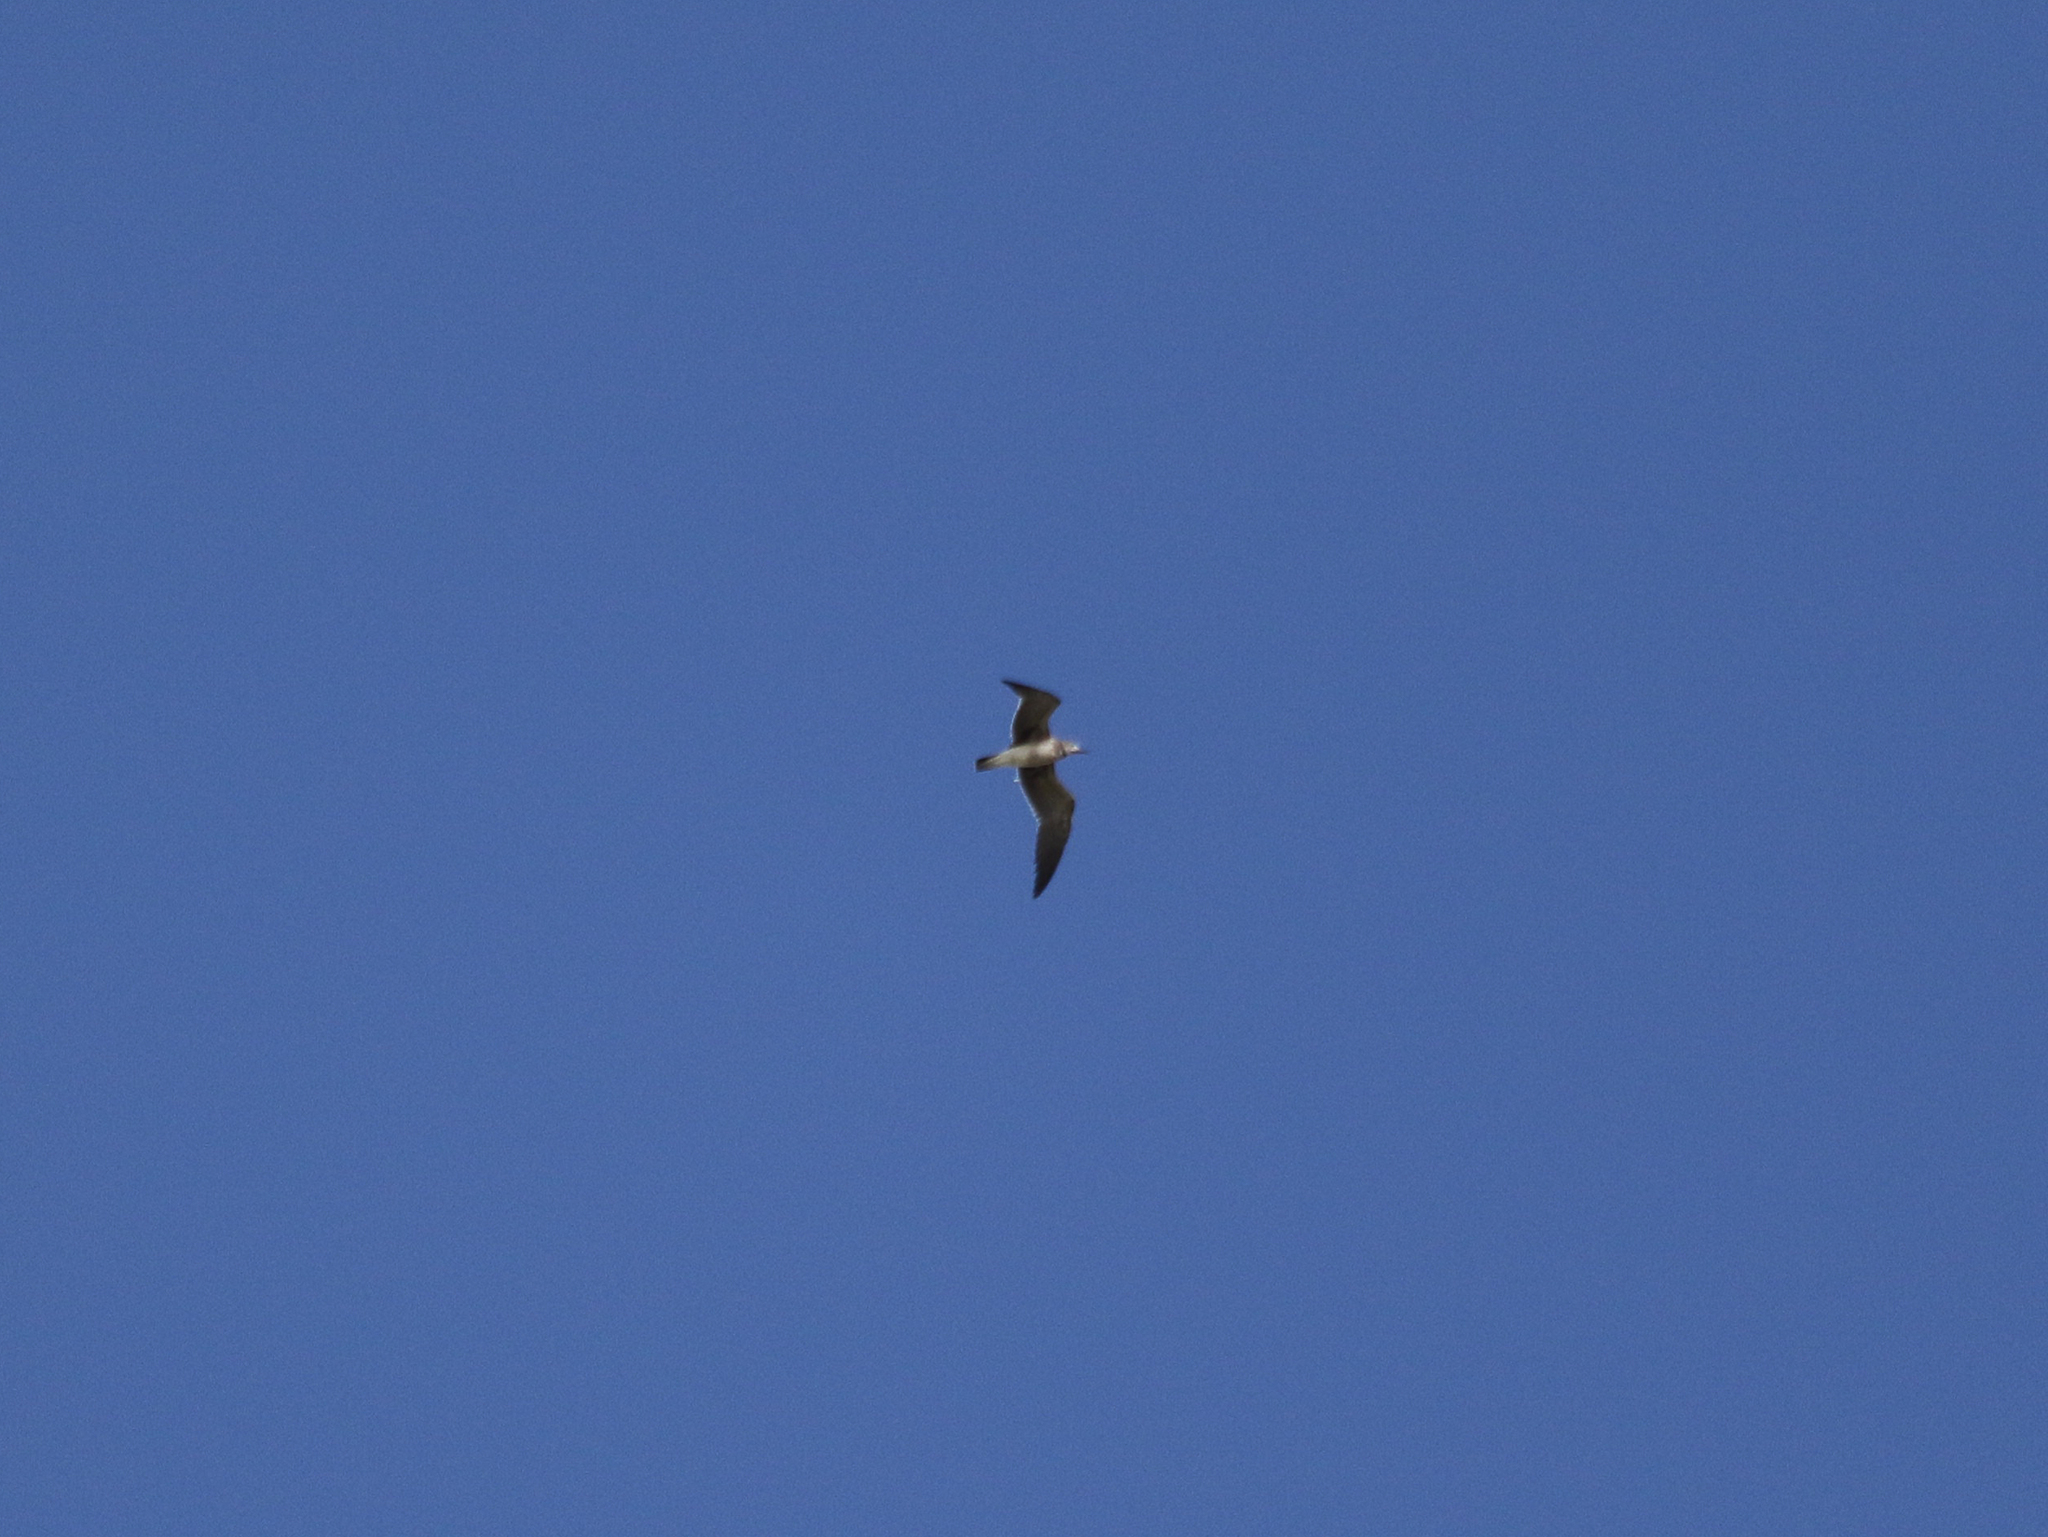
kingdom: Animalia
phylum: Chordata
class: Aves
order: Charadriiformes
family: Laridae
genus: Leucophaeus
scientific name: Leucophaeus atricilla
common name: Laughing gull
